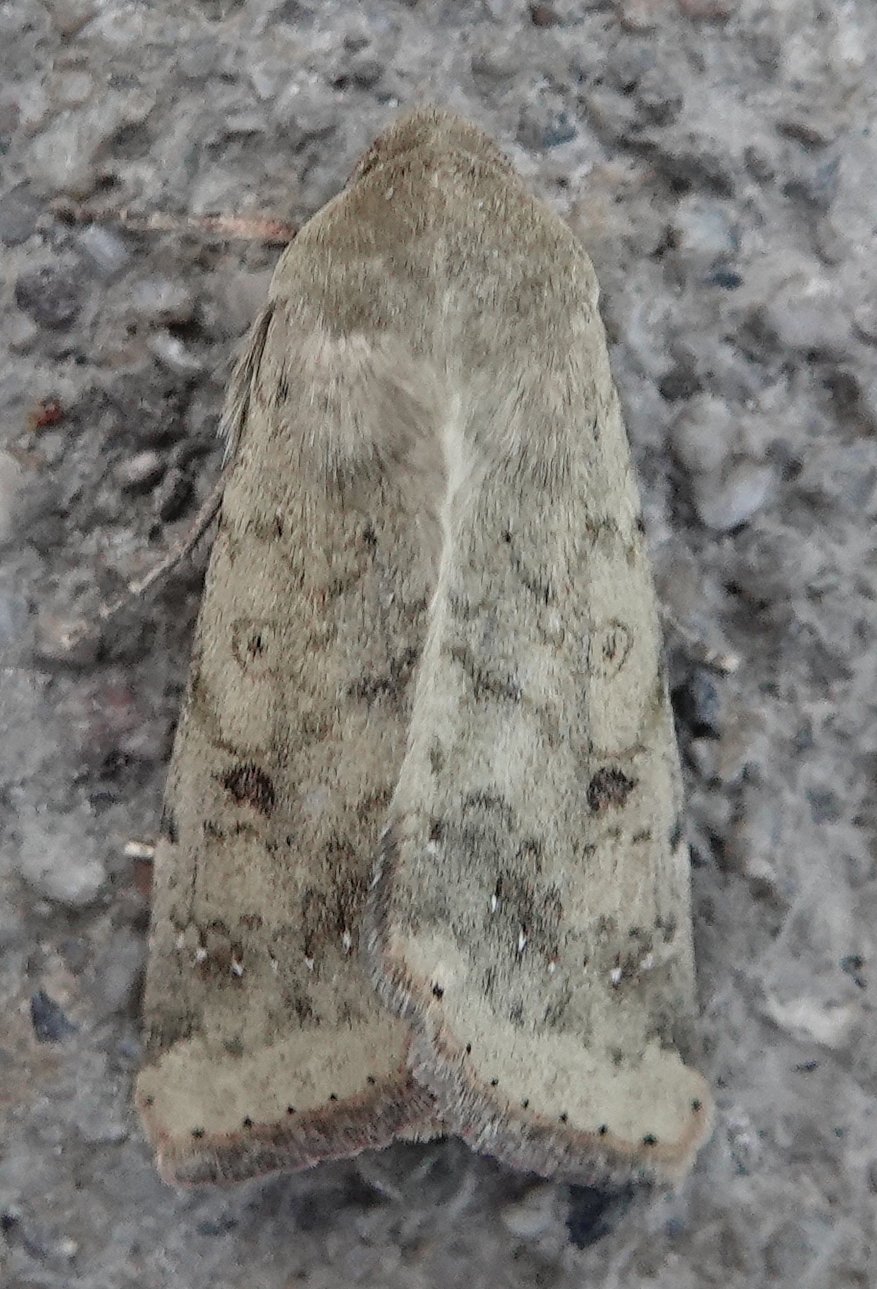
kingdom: Animalia
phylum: Arthropoda
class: Insecta
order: Lepidoptera
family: Noctuidae
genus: Helicoverpa
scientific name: Helicoverpa zea
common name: Bollworm
